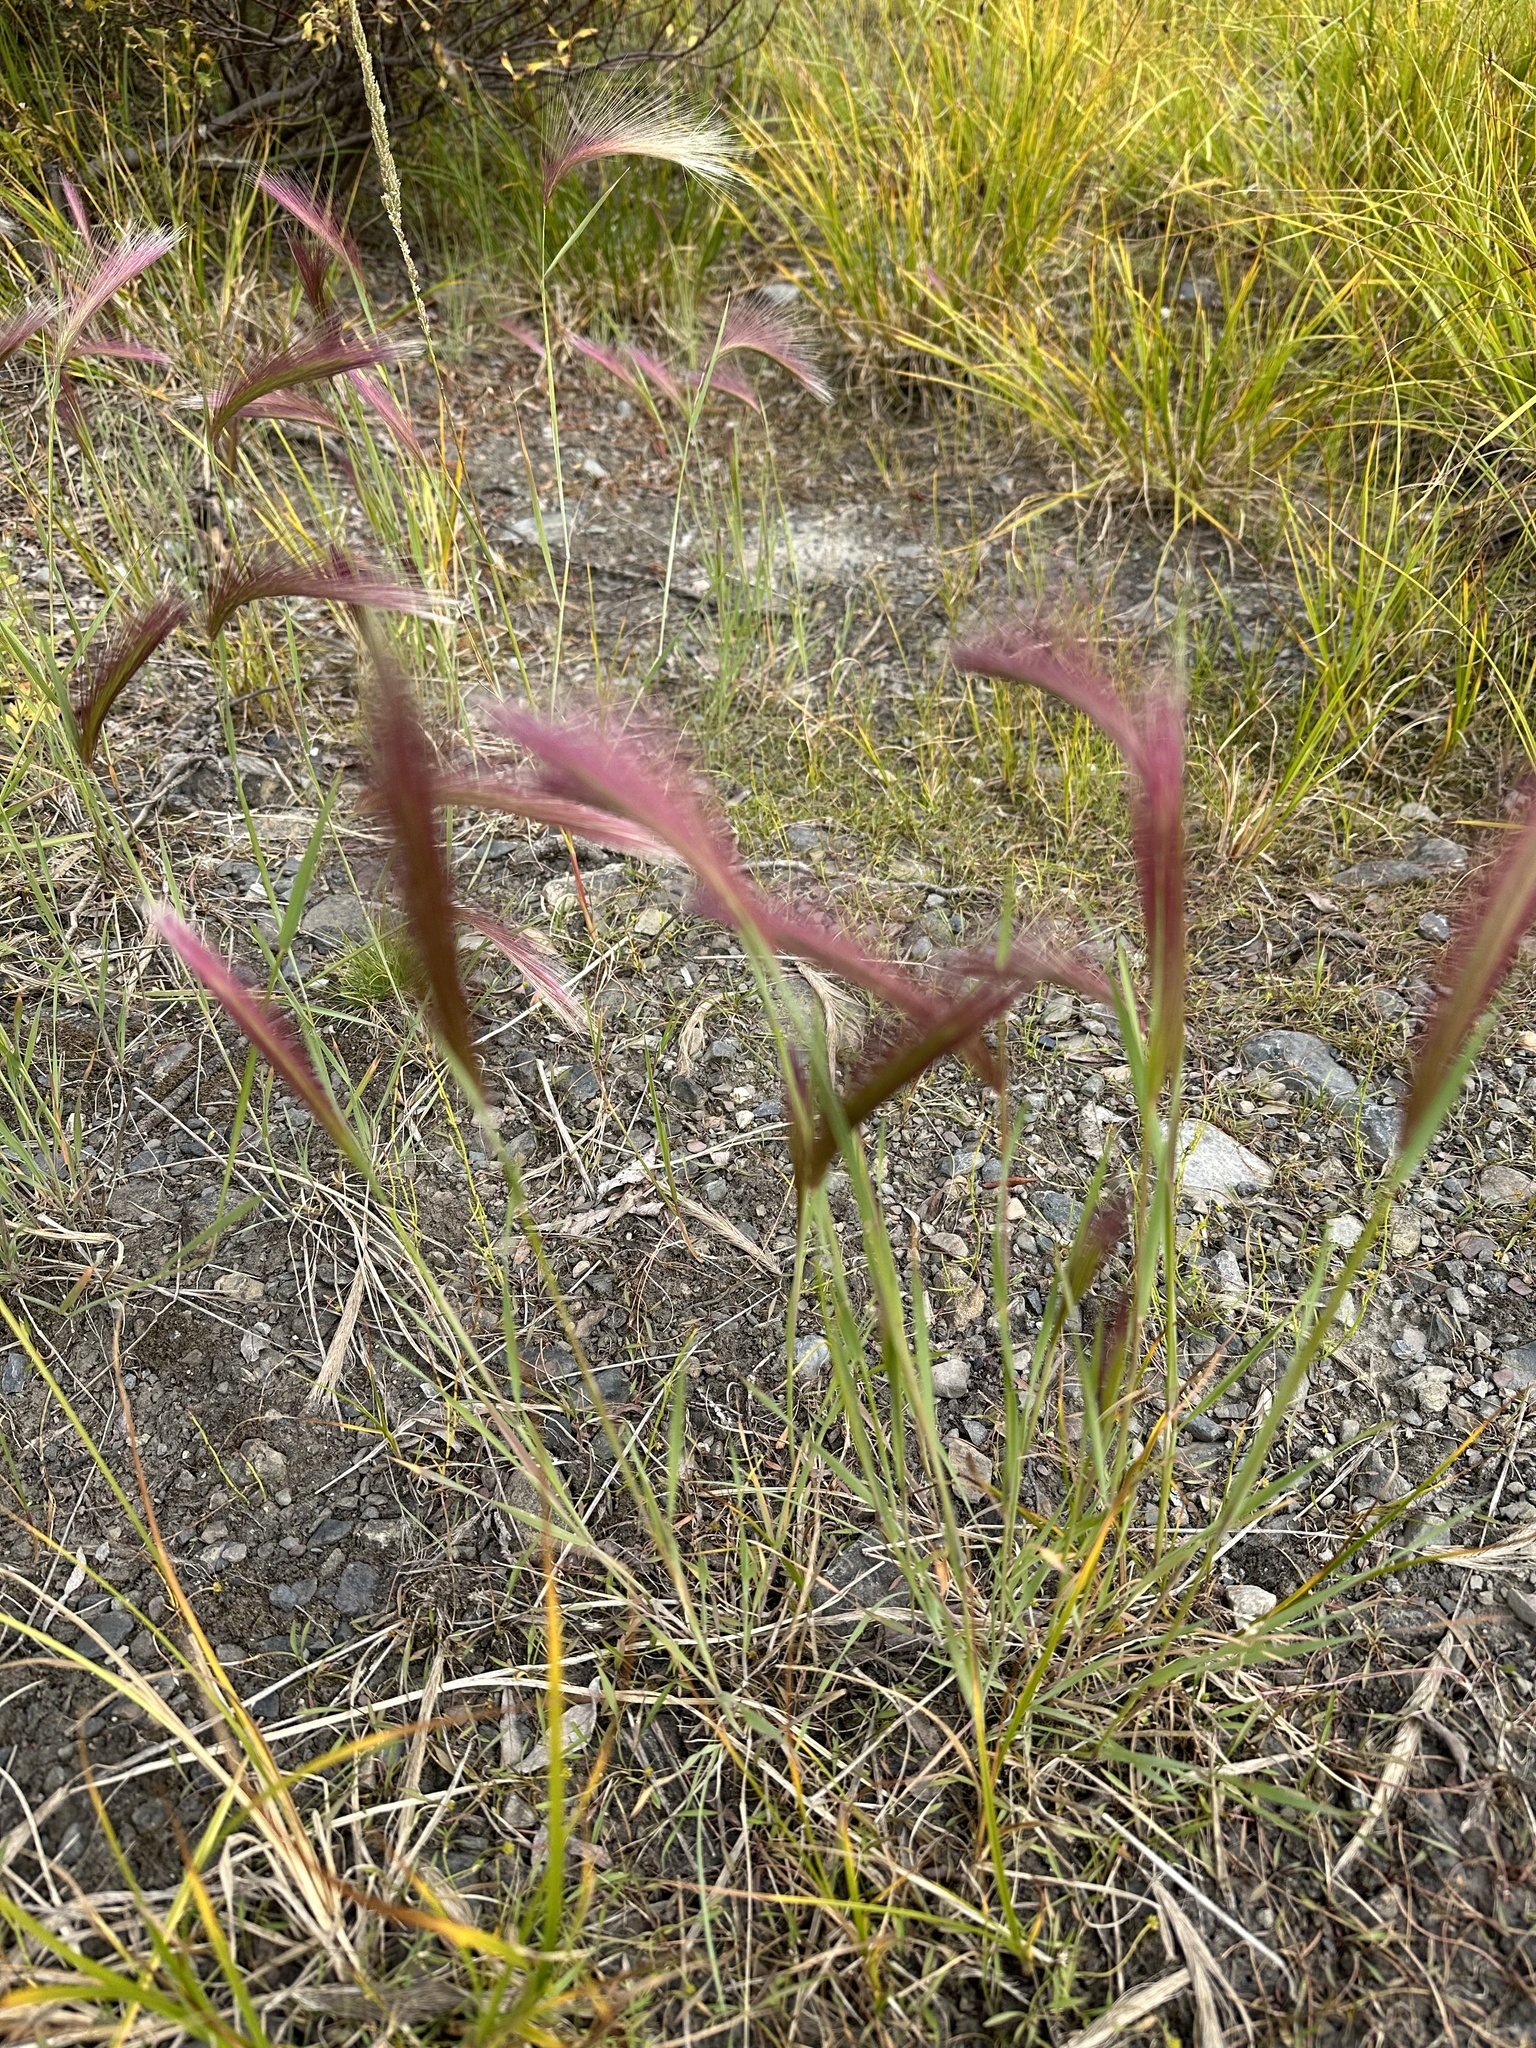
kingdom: Plantae
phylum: Tracheophyta
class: Liliopsida
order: Poales
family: Poaceae
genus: Hordeum
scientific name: Hordeum jubatum
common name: Foxtail barley
